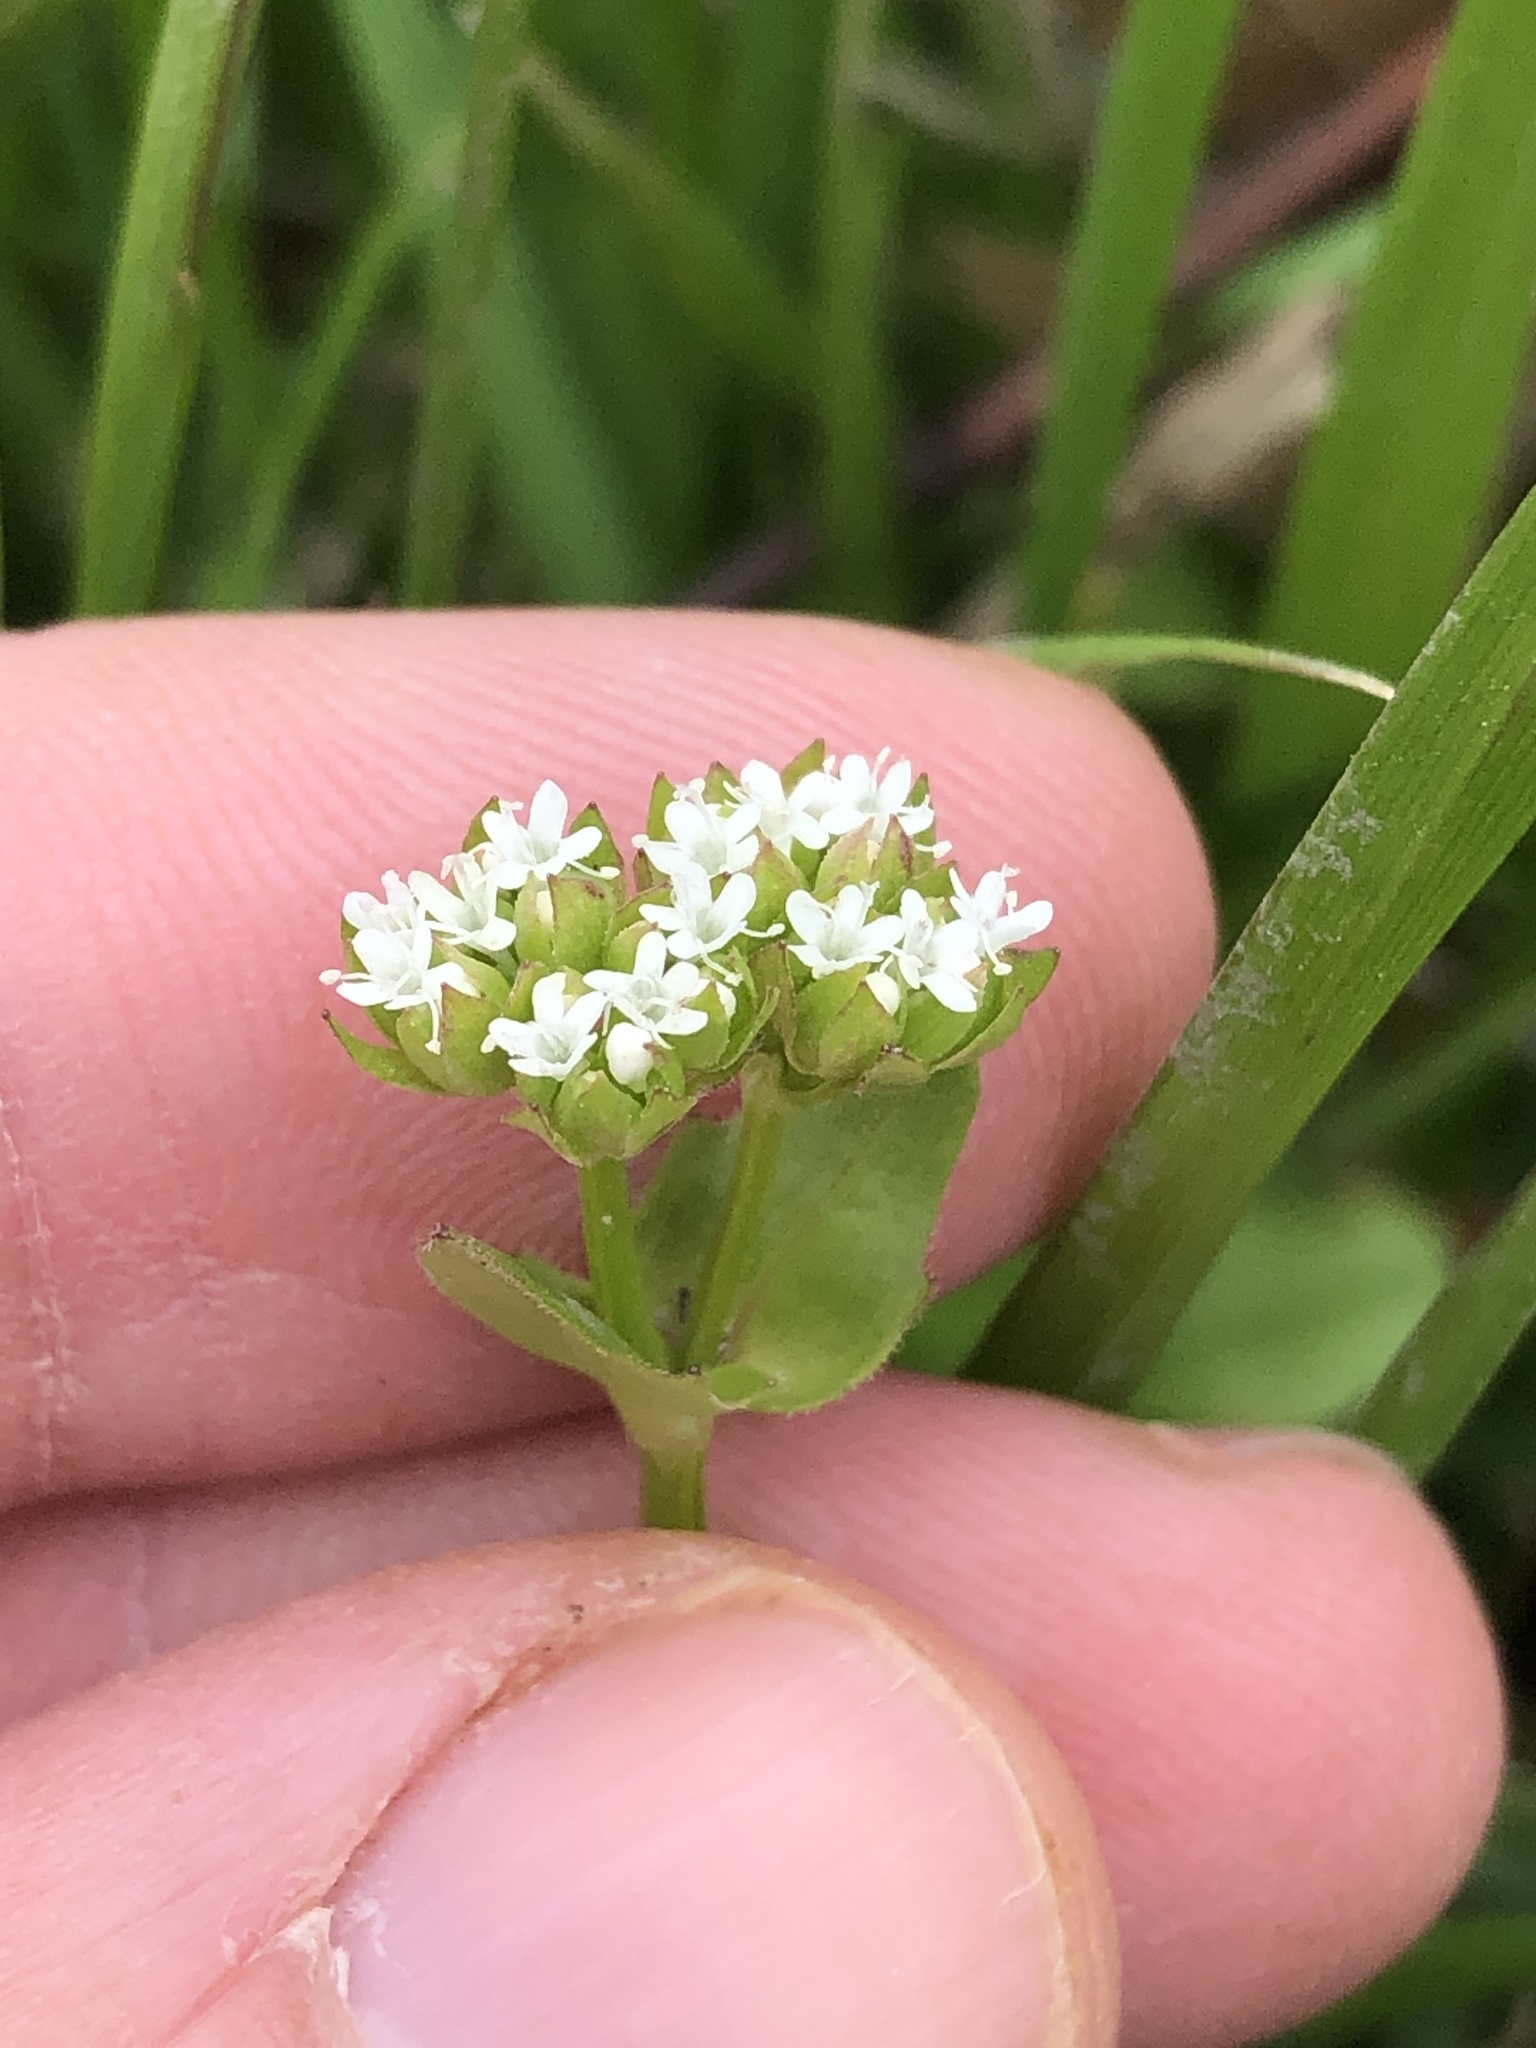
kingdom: Plantae
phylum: Tracheophyta
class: Magnoliopsida
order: Dipsacales
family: Caprifoliaceae
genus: Valerianella
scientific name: Valerianella radiata
